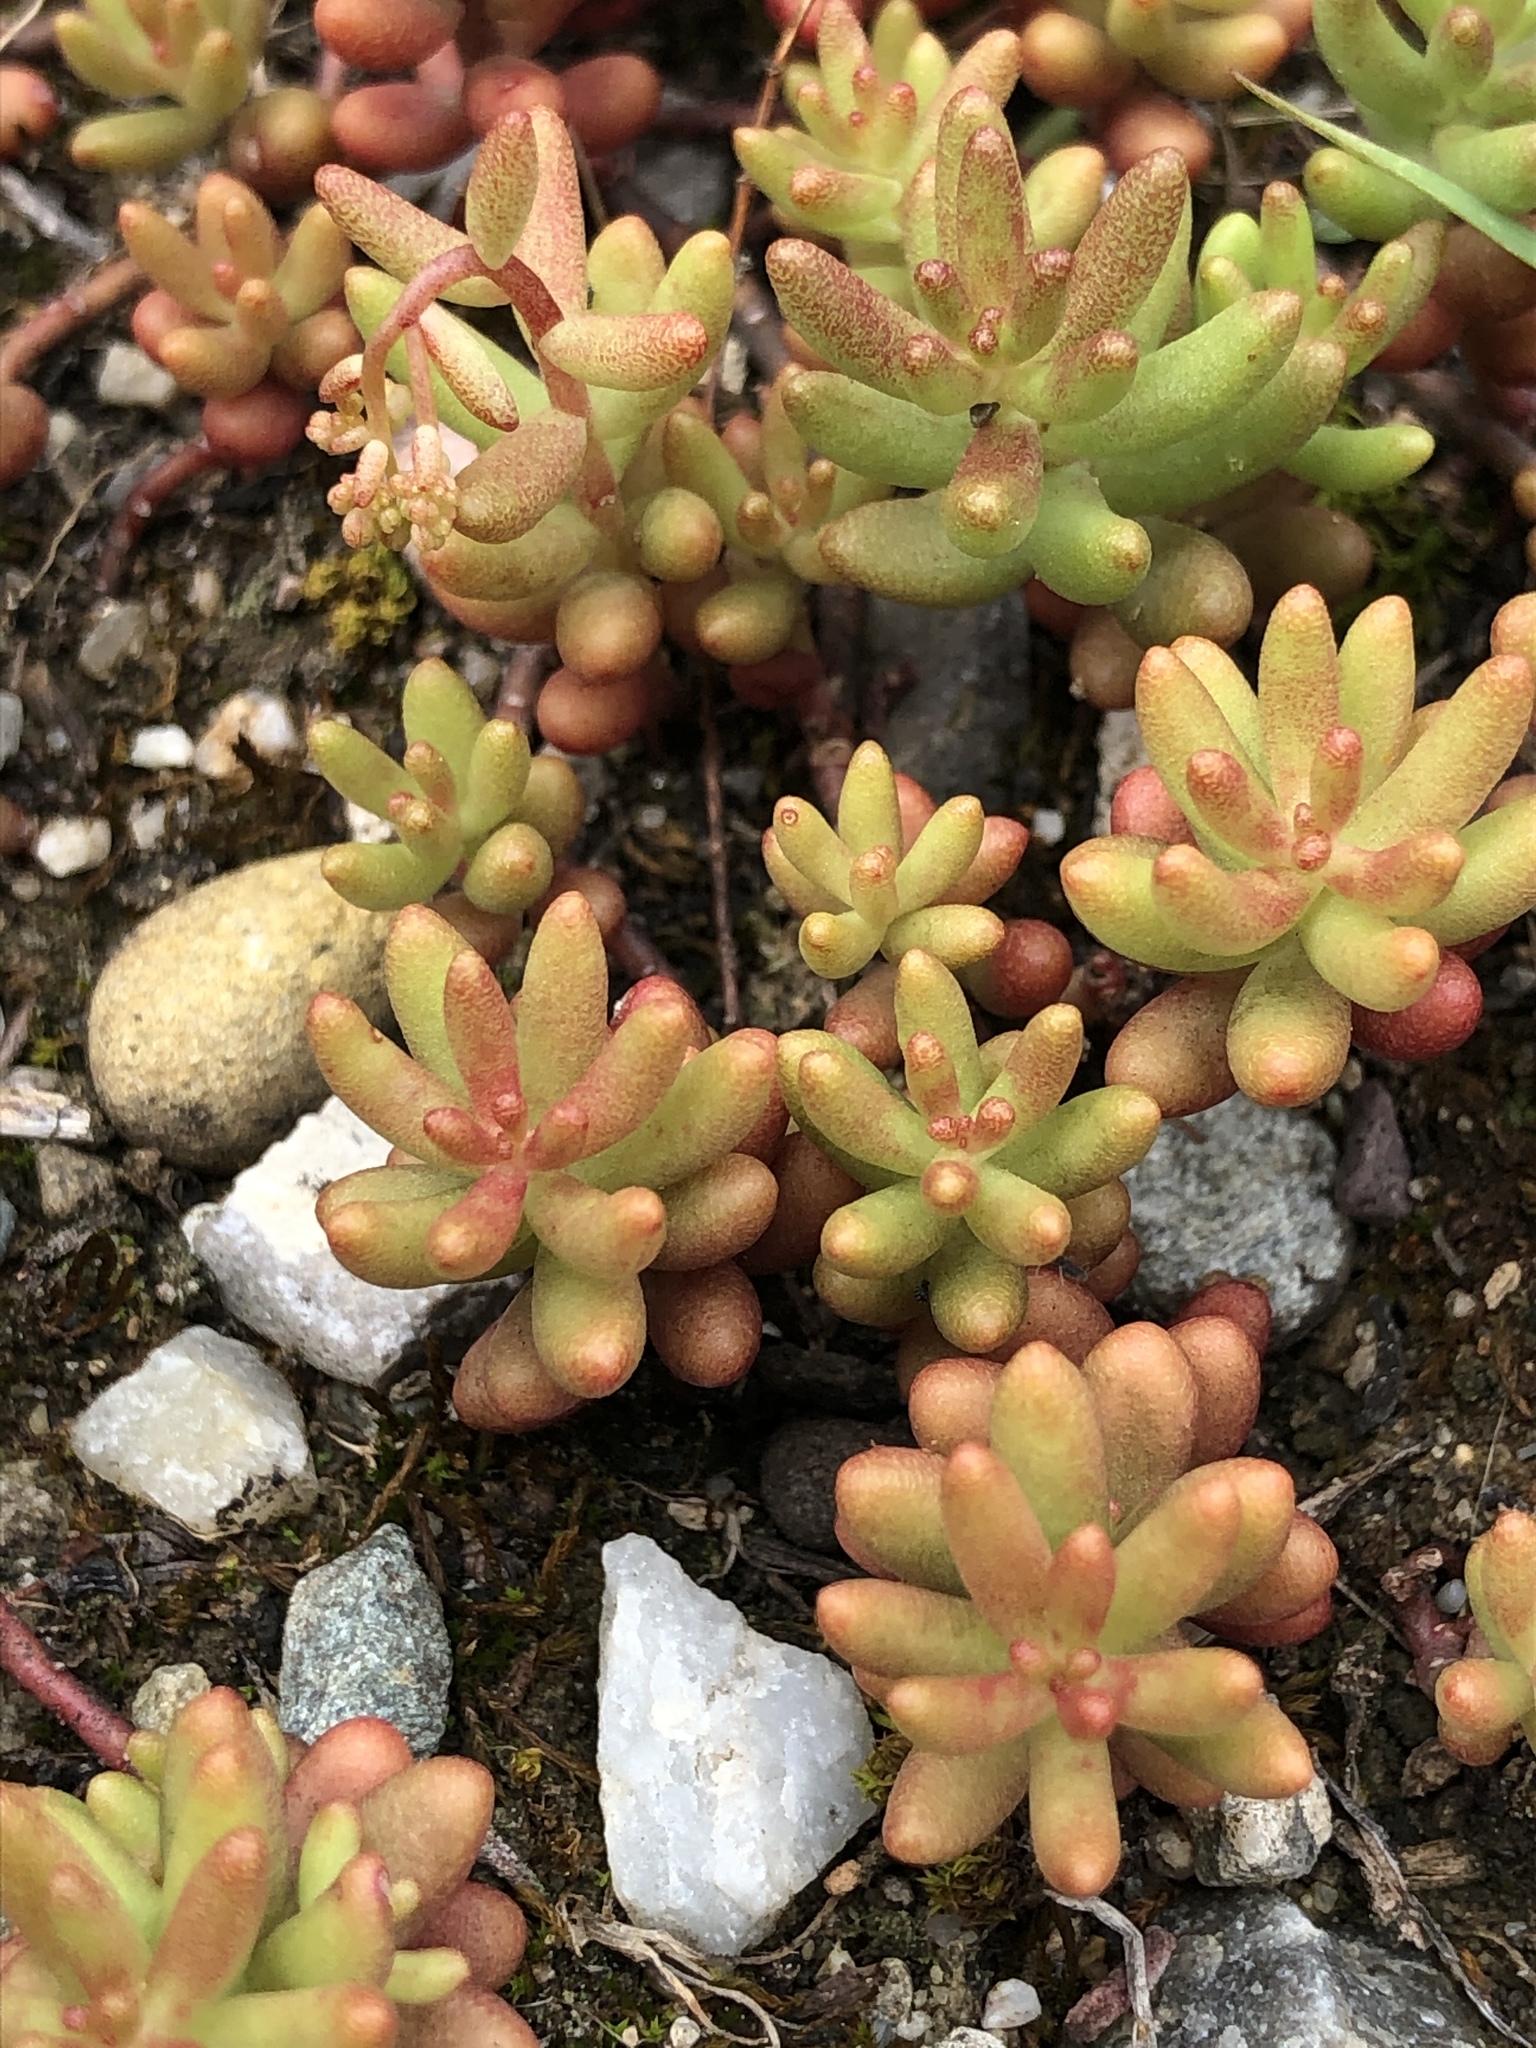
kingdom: Plantae
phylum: Tracheophyta
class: Magnoliopsida
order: Saxifragales
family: Crassulaceae
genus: Sedum
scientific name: Sedum album
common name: White stonecrop
